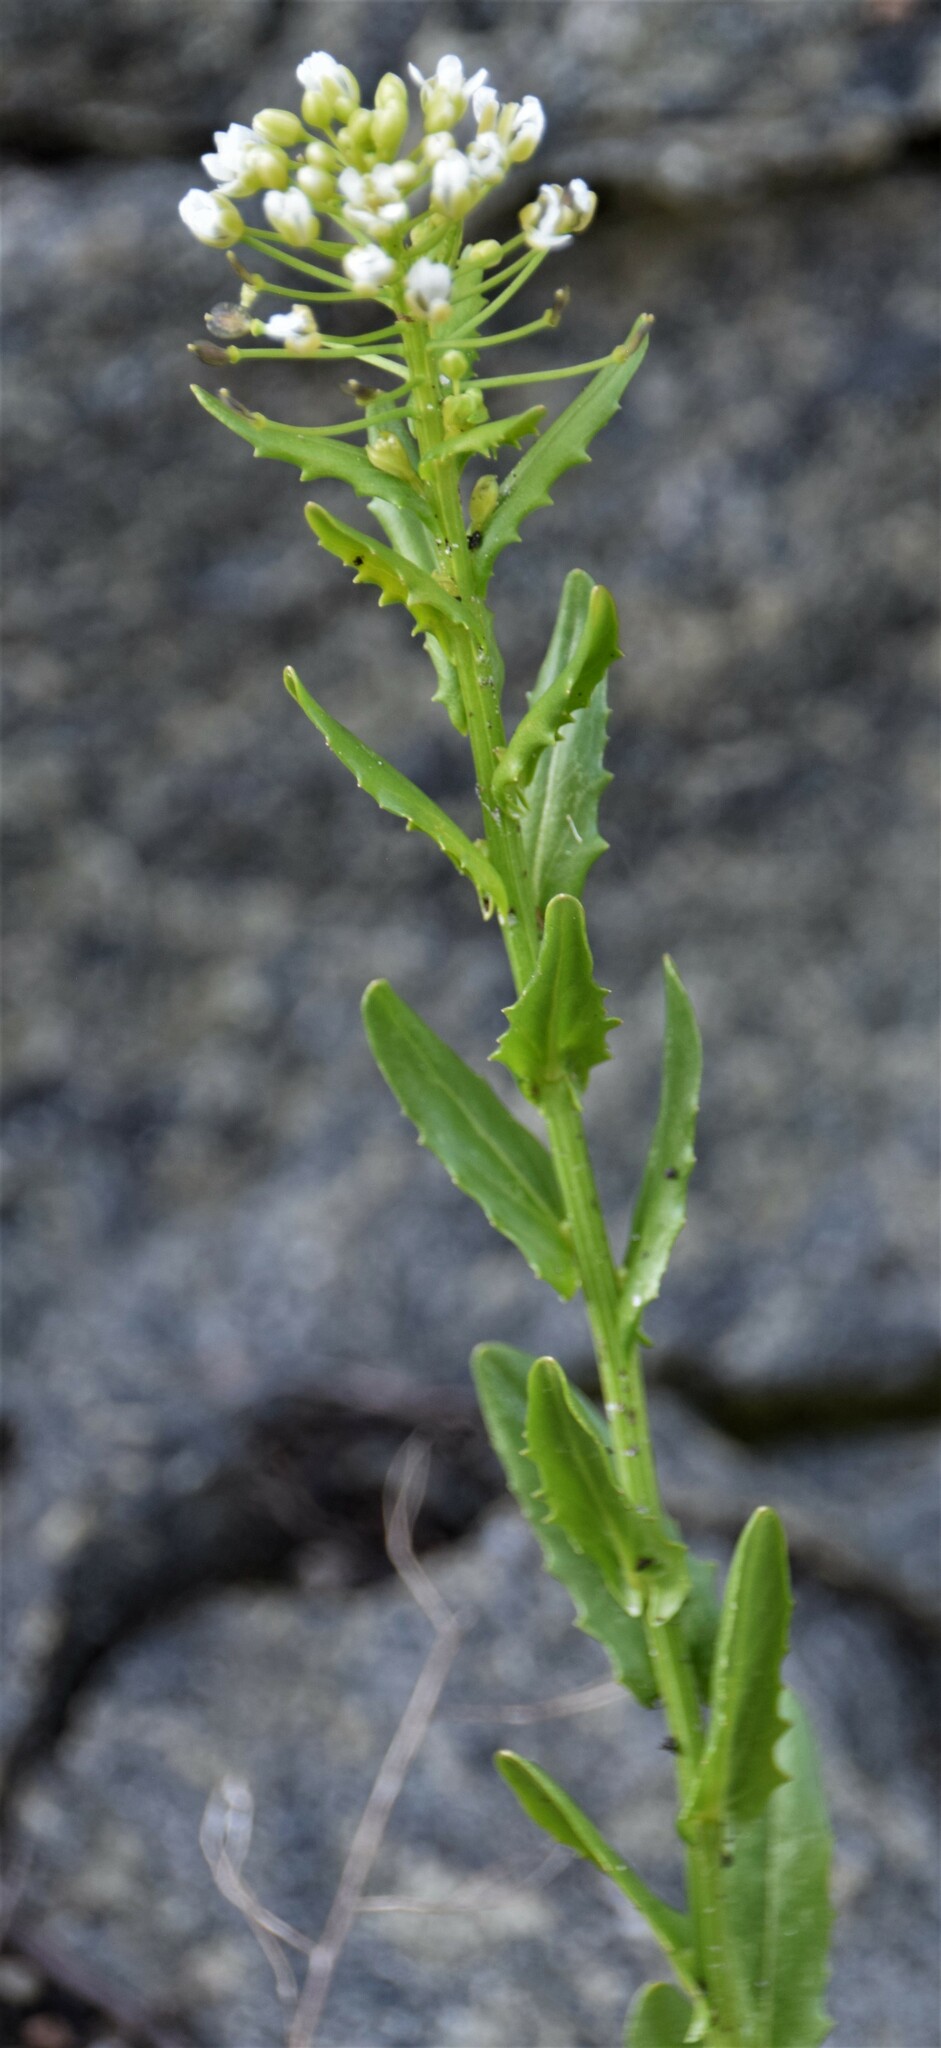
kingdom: Plantae
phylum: Tracheophyta
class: Magnoliopsida
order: Brassicales
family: Brassicaceae
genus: Thlaspi
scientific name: Thlaspi arvense
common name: Field pennycress
